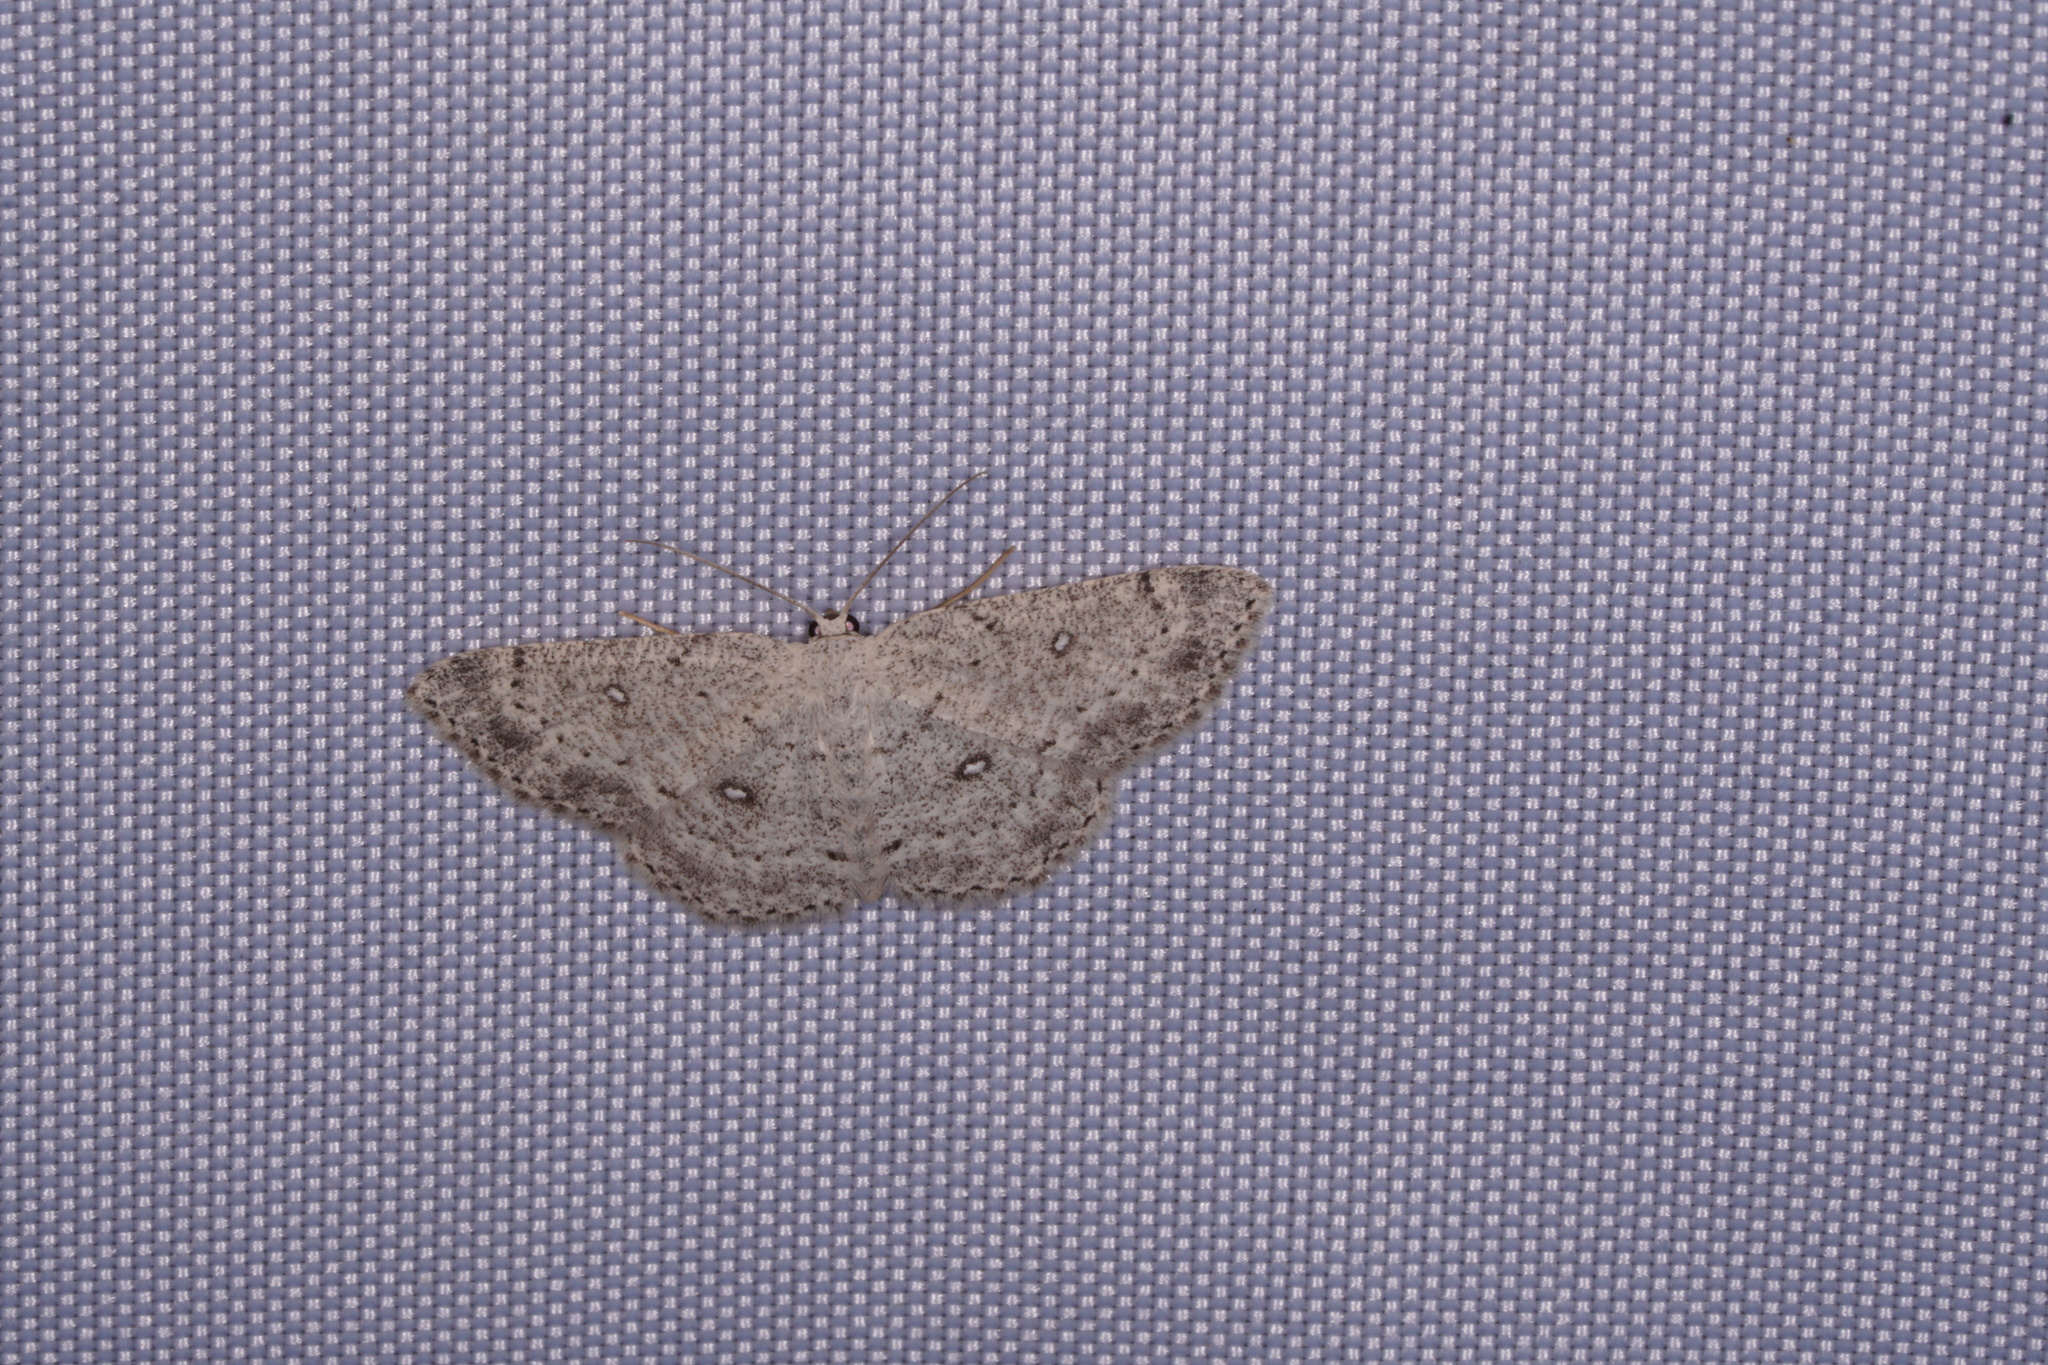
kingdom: Animalia
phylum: Arthropoda
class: Insecta
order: Lepidoptera
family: Geometridae
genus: Cyclophora
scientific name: Cyclophora pendulinaria
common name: Sweet fern geometer
